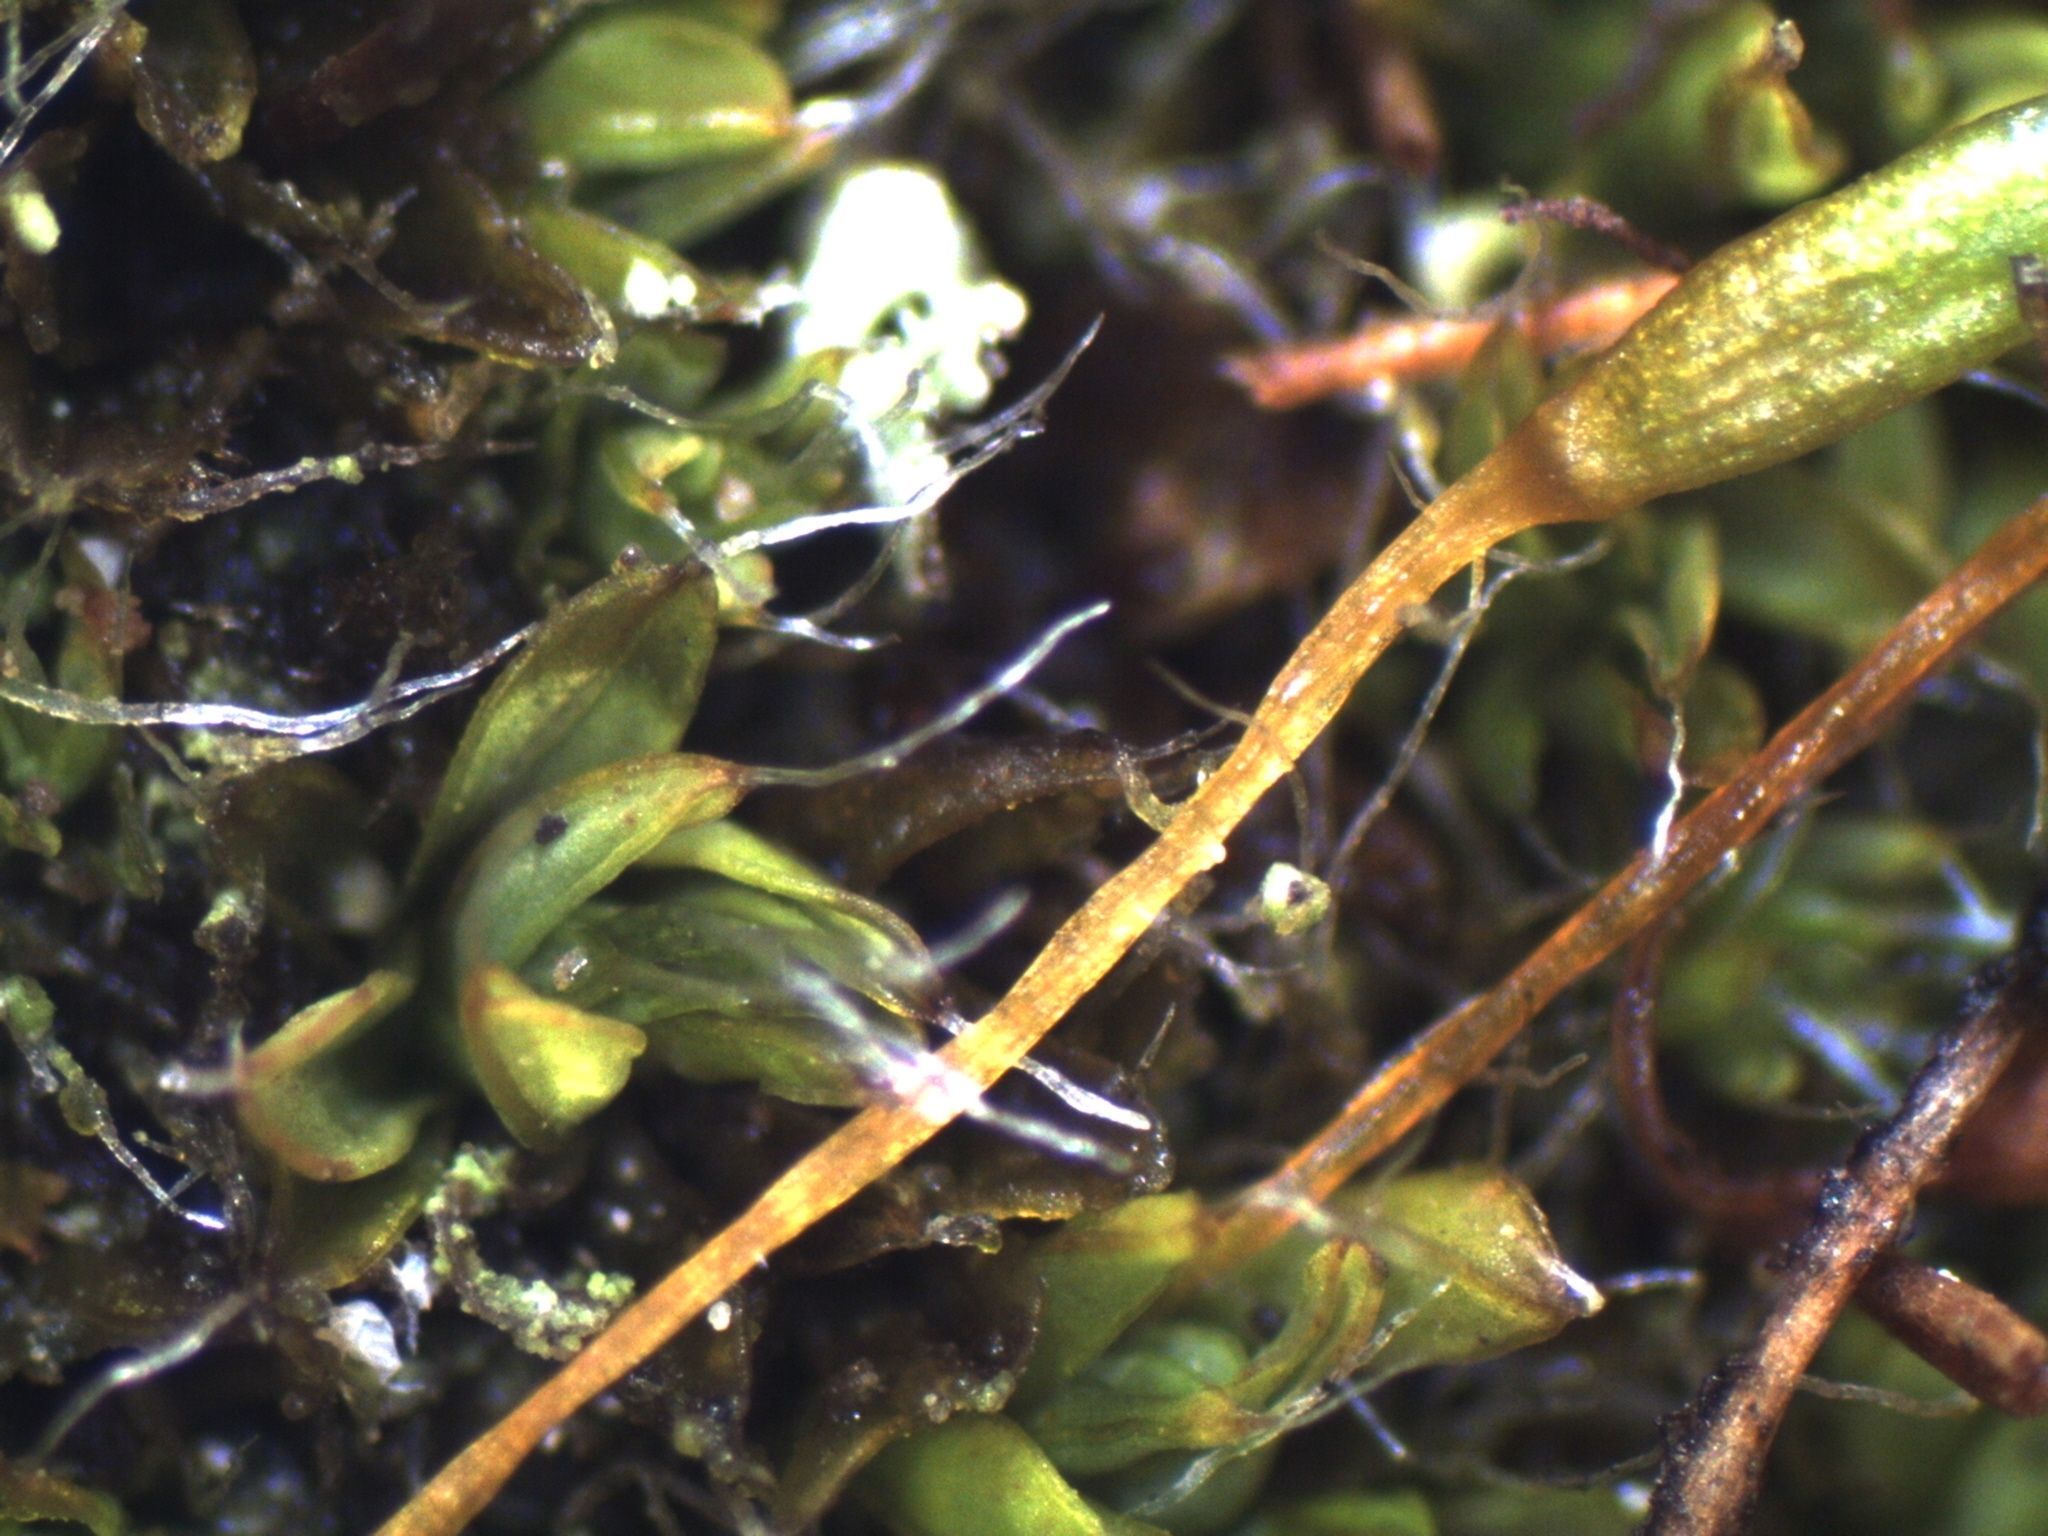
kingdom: Plantae
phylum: Bryophyta
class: Bryopsida
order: Pottiales
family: Pottiaceae
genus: Tortula
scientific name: Tortula muralis
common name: Wall screw-moss
